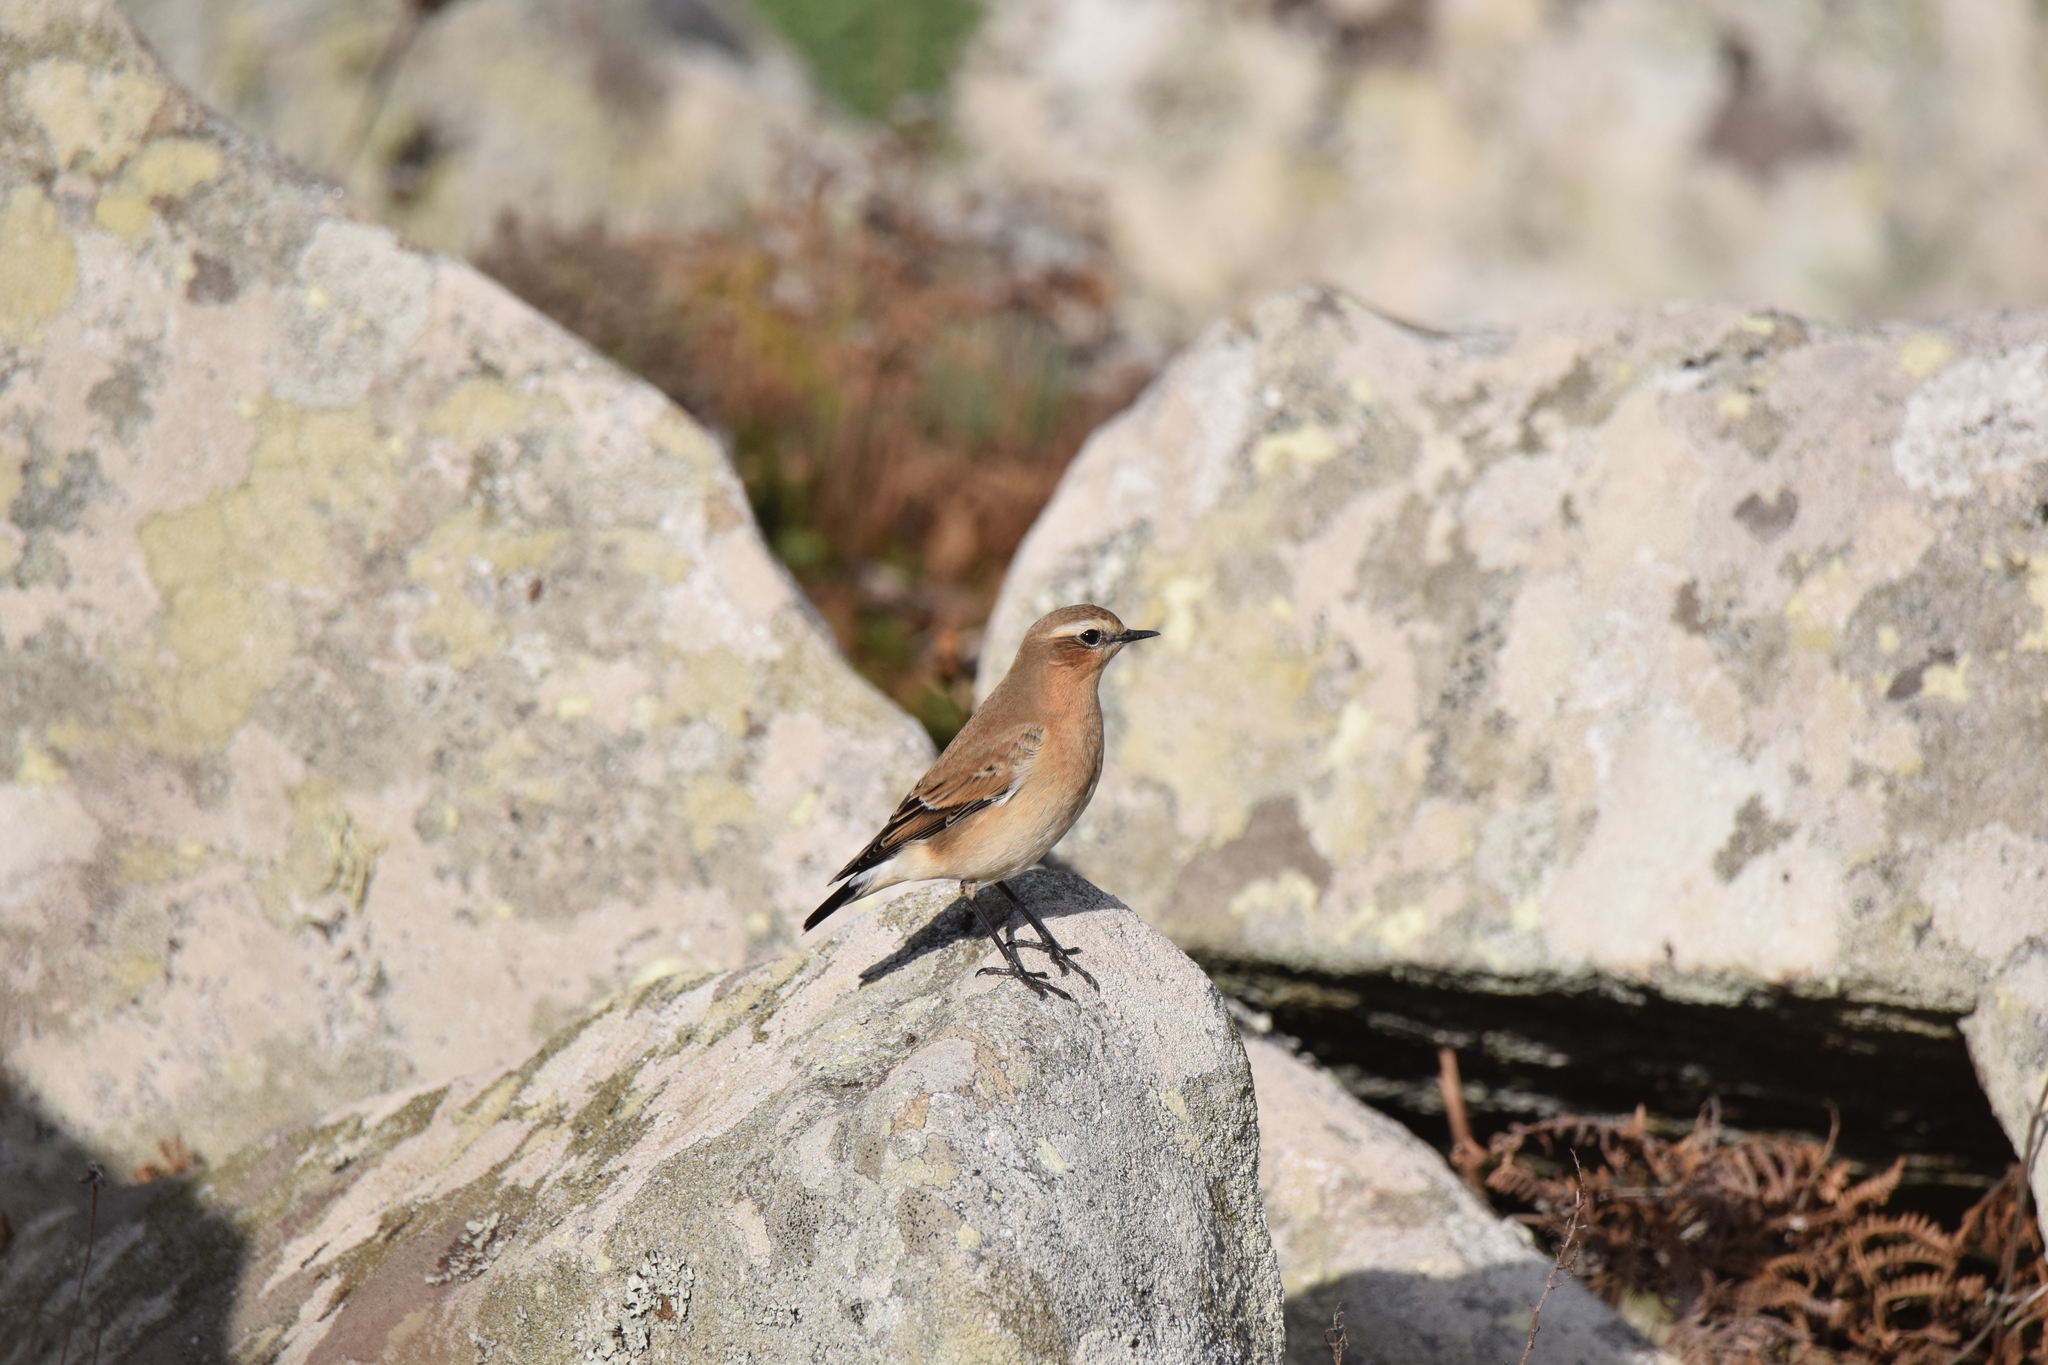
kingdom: Animalia
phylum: Chordata
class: Aves
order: Passeriformes
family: Muscicapidae
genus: Oenanthe
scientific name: Oenanthe oenanthe
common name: Northern wheatear
